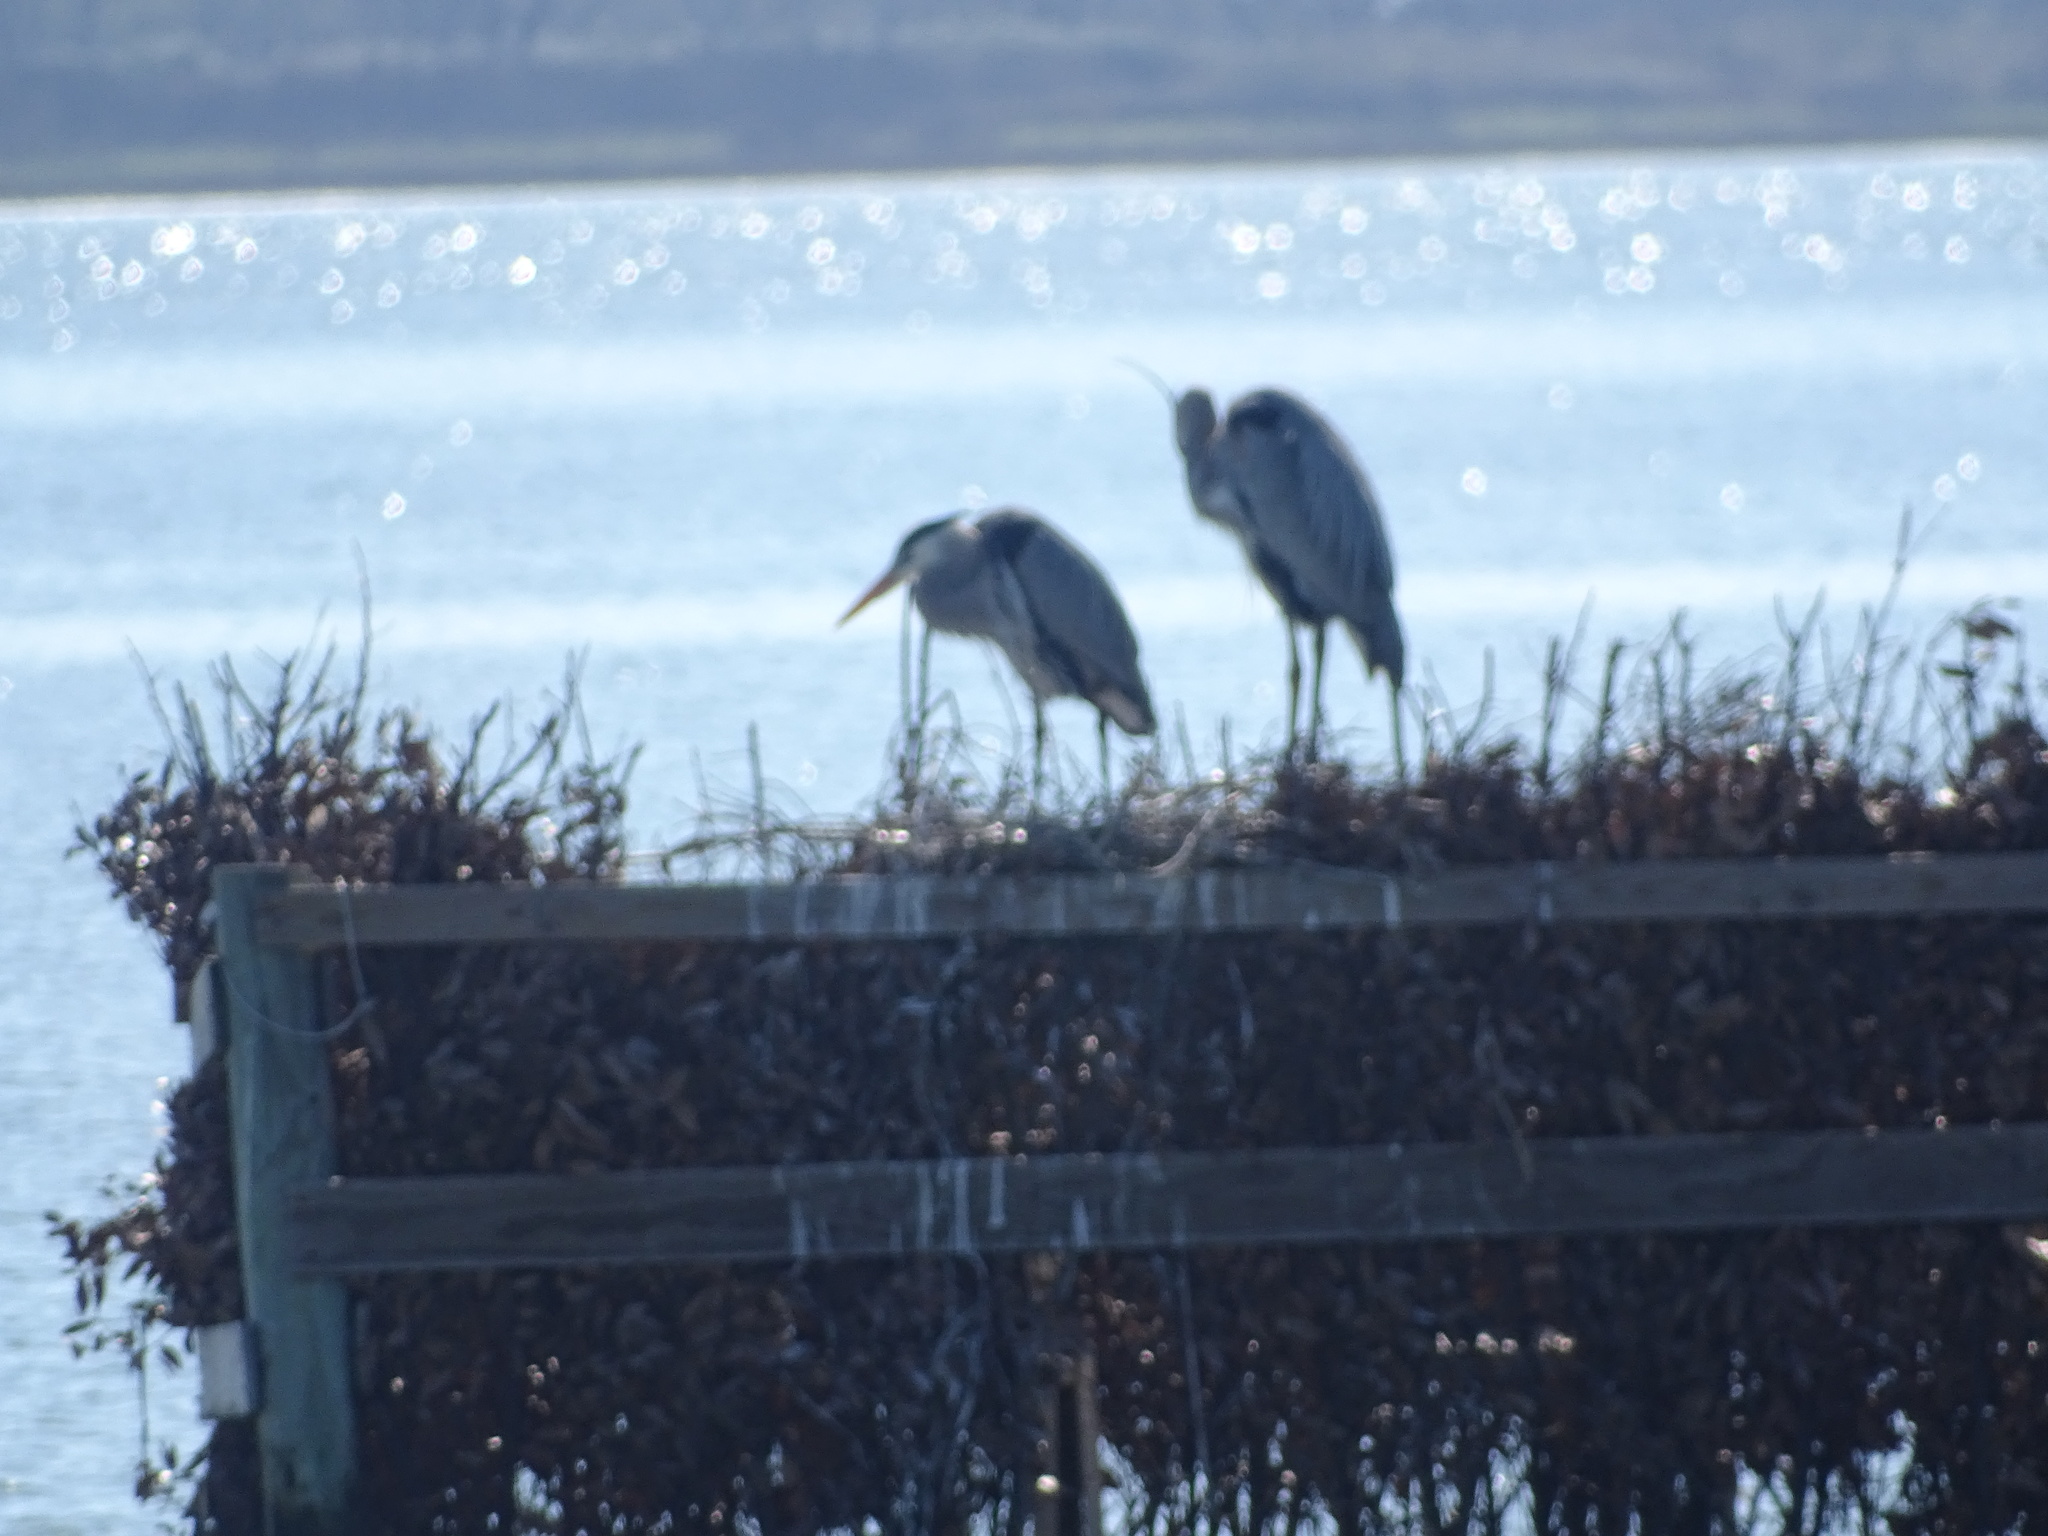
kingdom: Animalia
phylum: Chordata
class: Aves
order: Pelecaniformes
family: Ardeidae
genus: Ardea
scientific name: Ardea herodias
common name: Great blue heron
